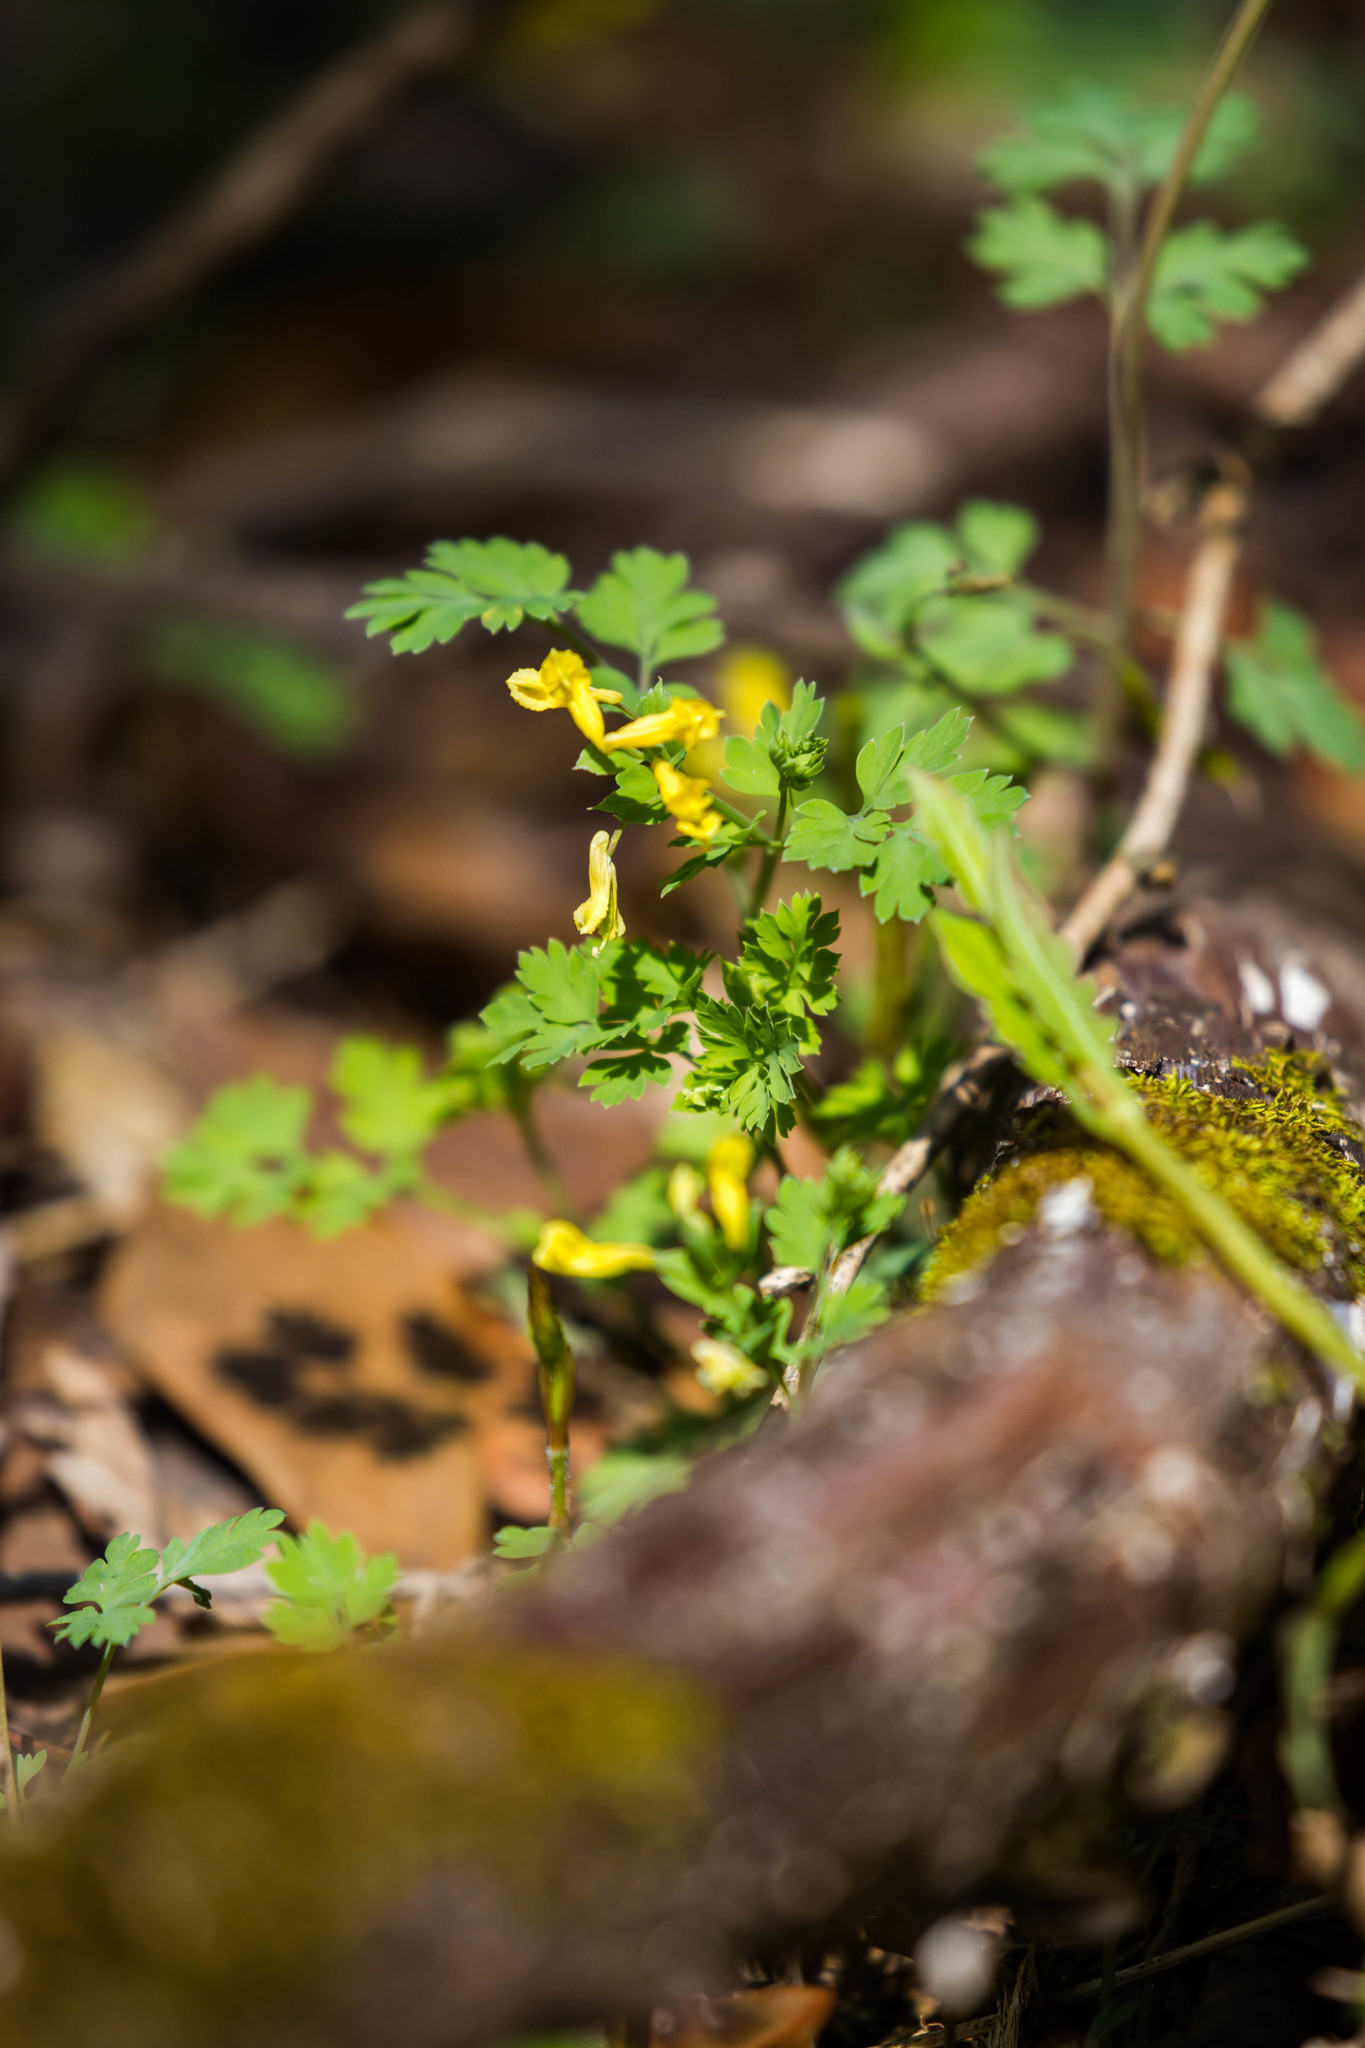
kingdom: Plantae
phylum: Tracheophyta
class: Magnoliopsida
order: Ranunculales
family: Papaveraceae
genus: Corydalis
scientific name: Corydalis flavula
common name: Yellow corydalis
